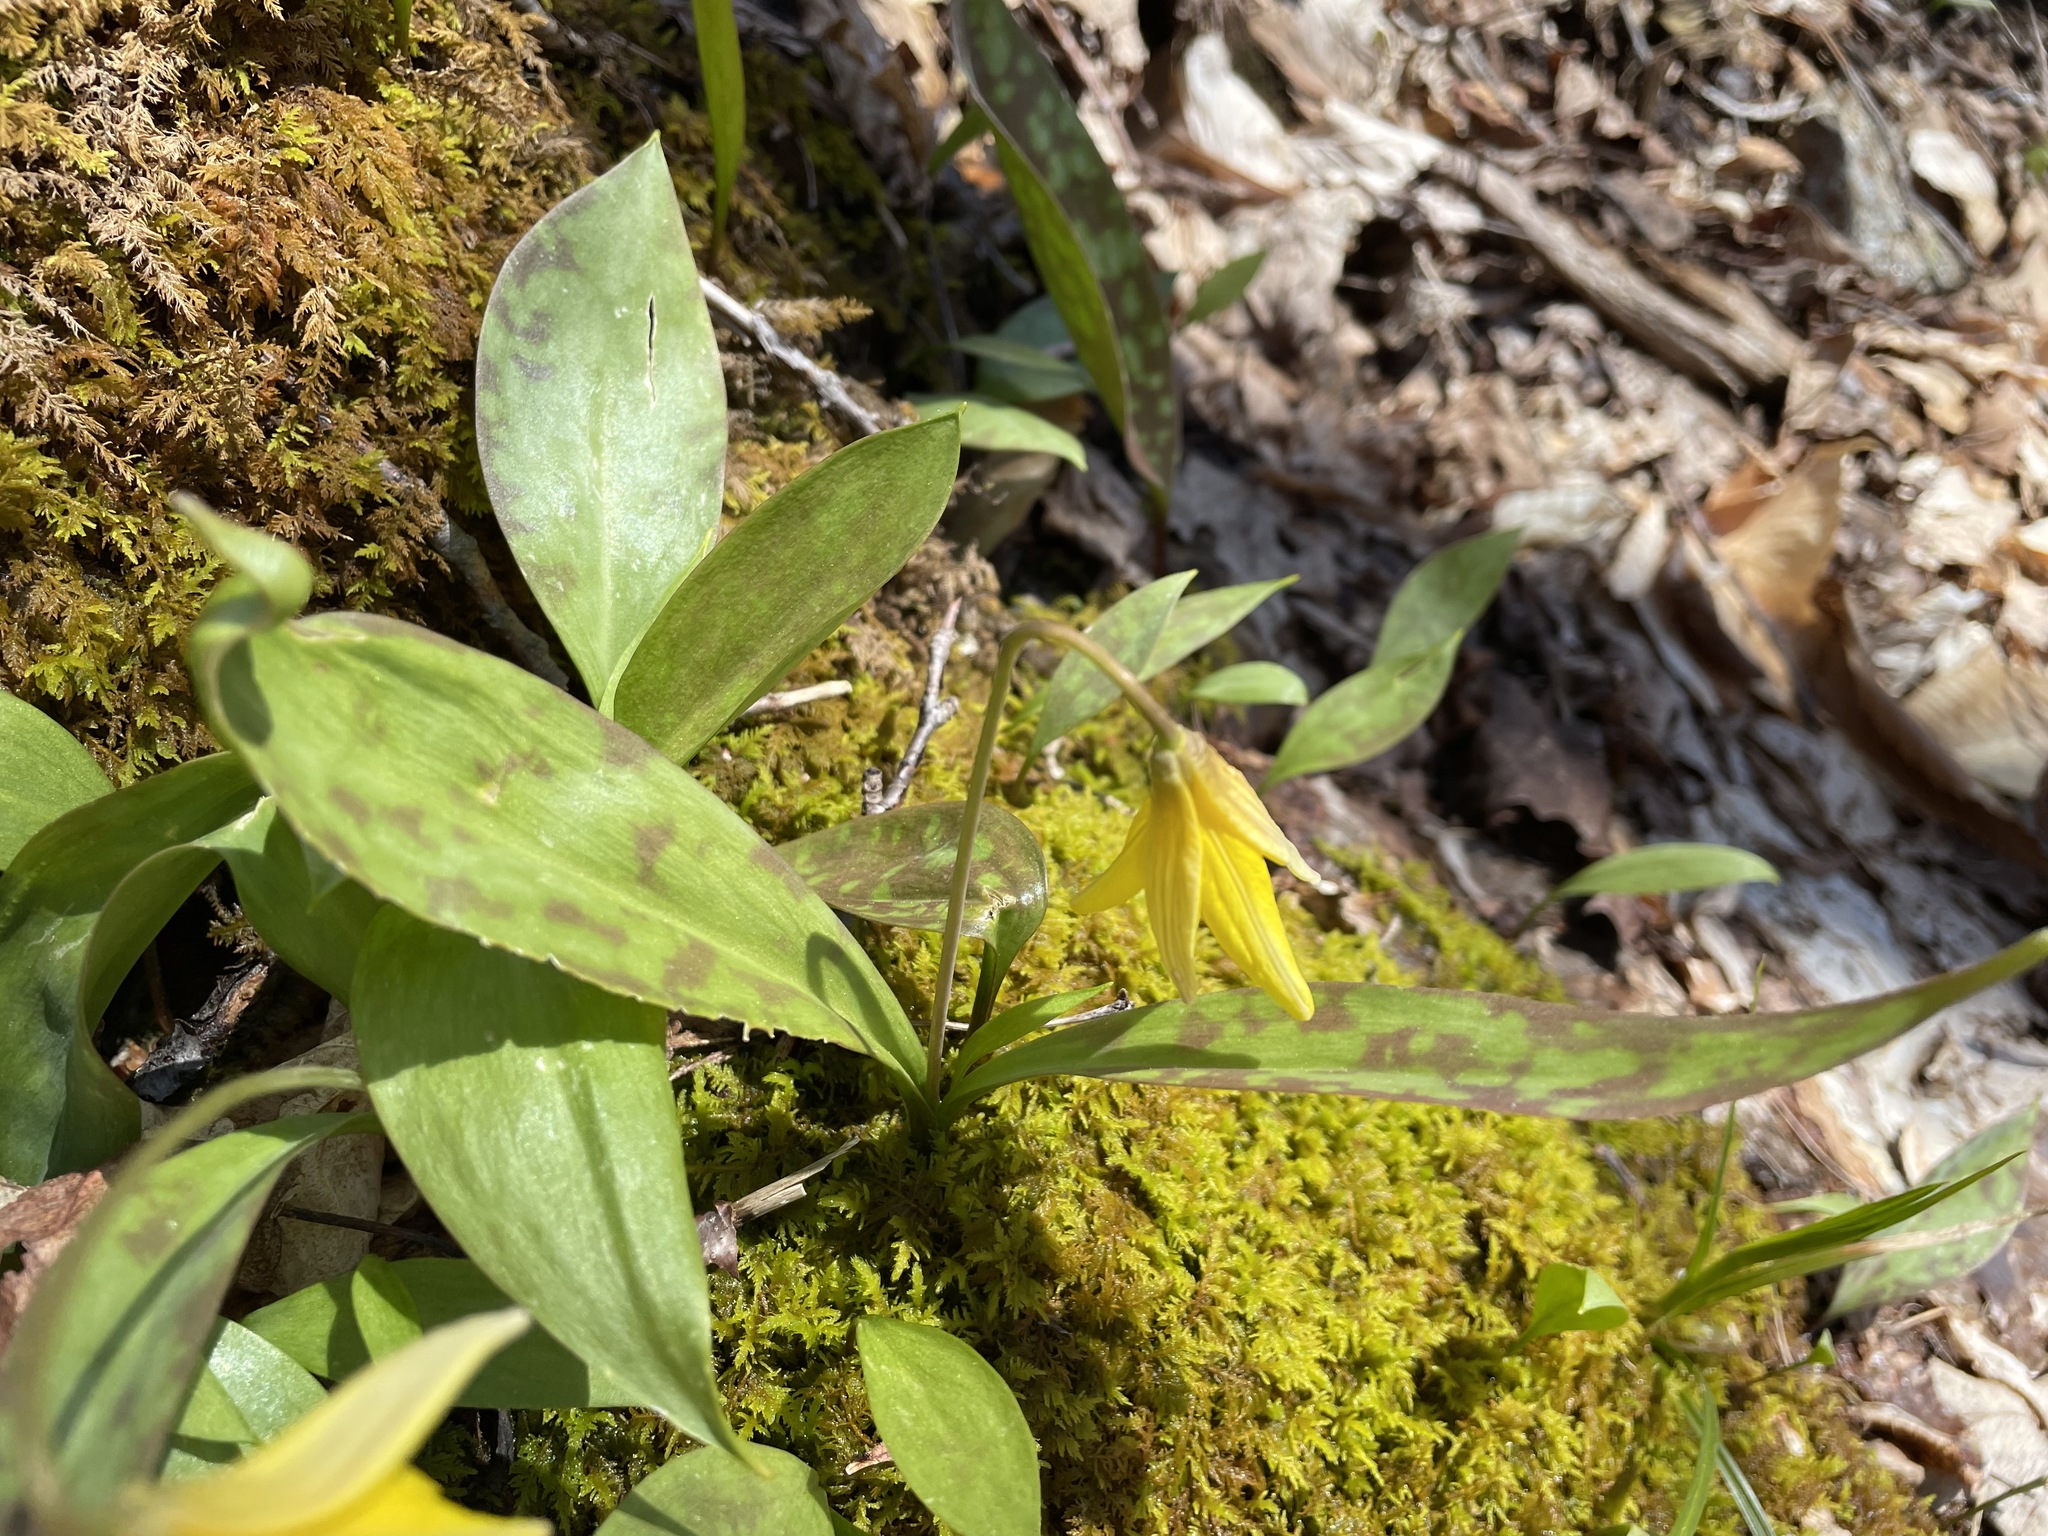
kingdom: Plantae
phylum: Tracheophyta
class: Liliopsida
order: Liliales
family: Liliaceae
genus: Erythronium
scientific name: Erythronium americanum
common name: Yellow adder's-tongue
